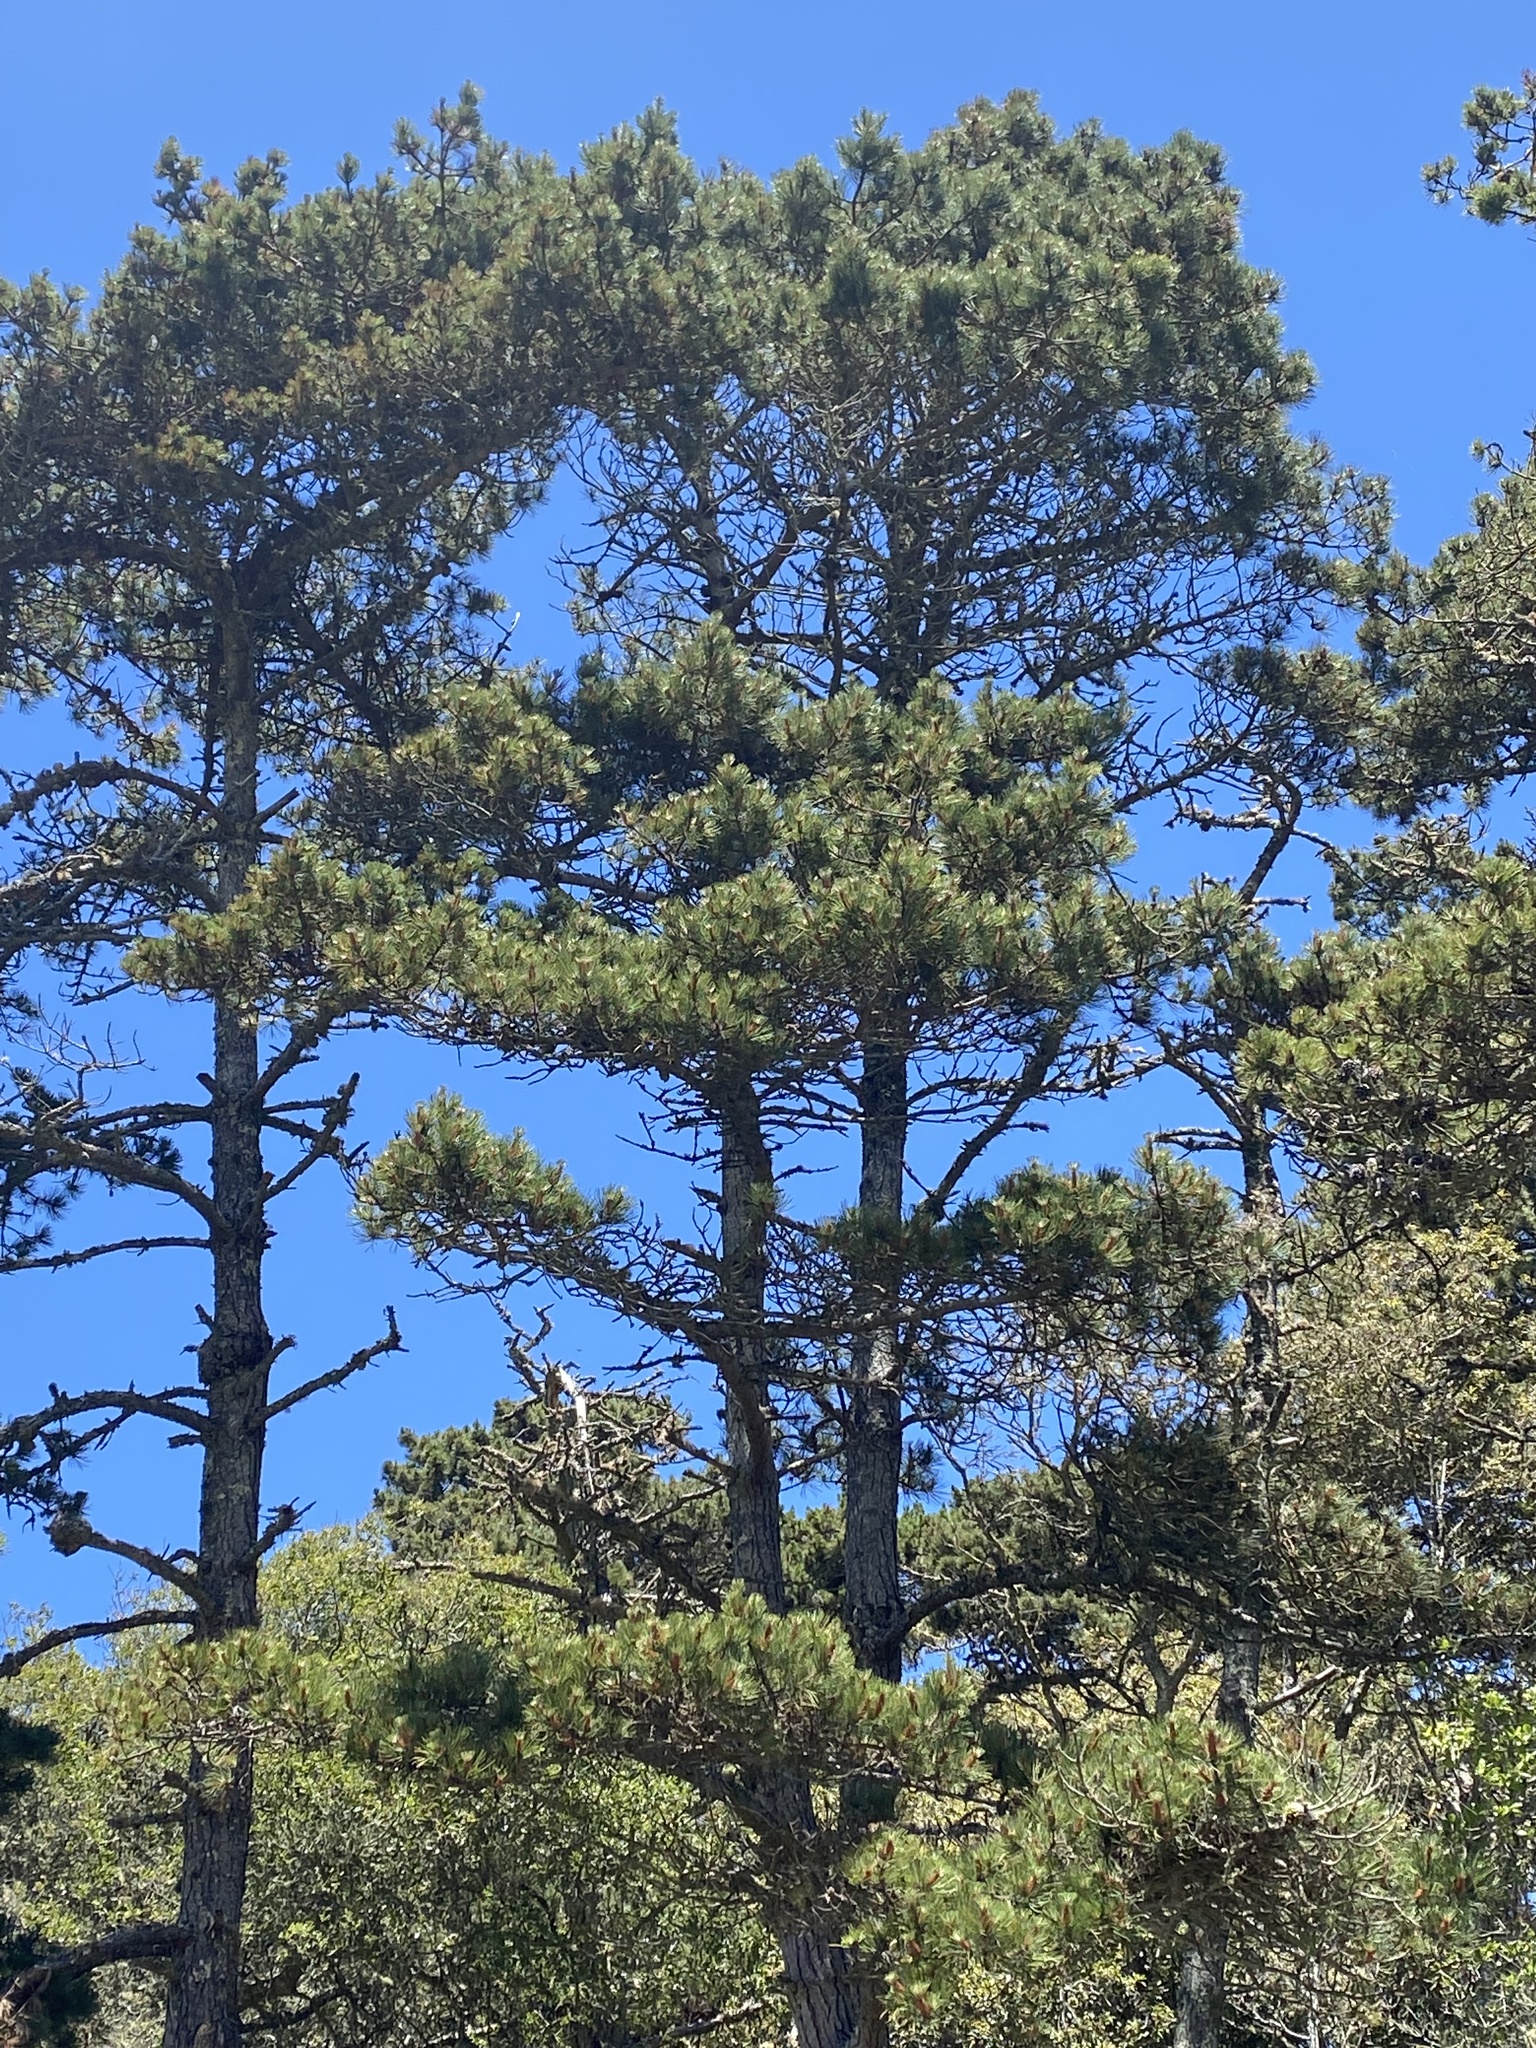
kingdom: Plantae
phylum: Tracheophyta
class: Pinopsida
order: Pinales
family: Pinaceae
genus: Pinus
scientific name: Pinus muricata
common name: Bishop pine
